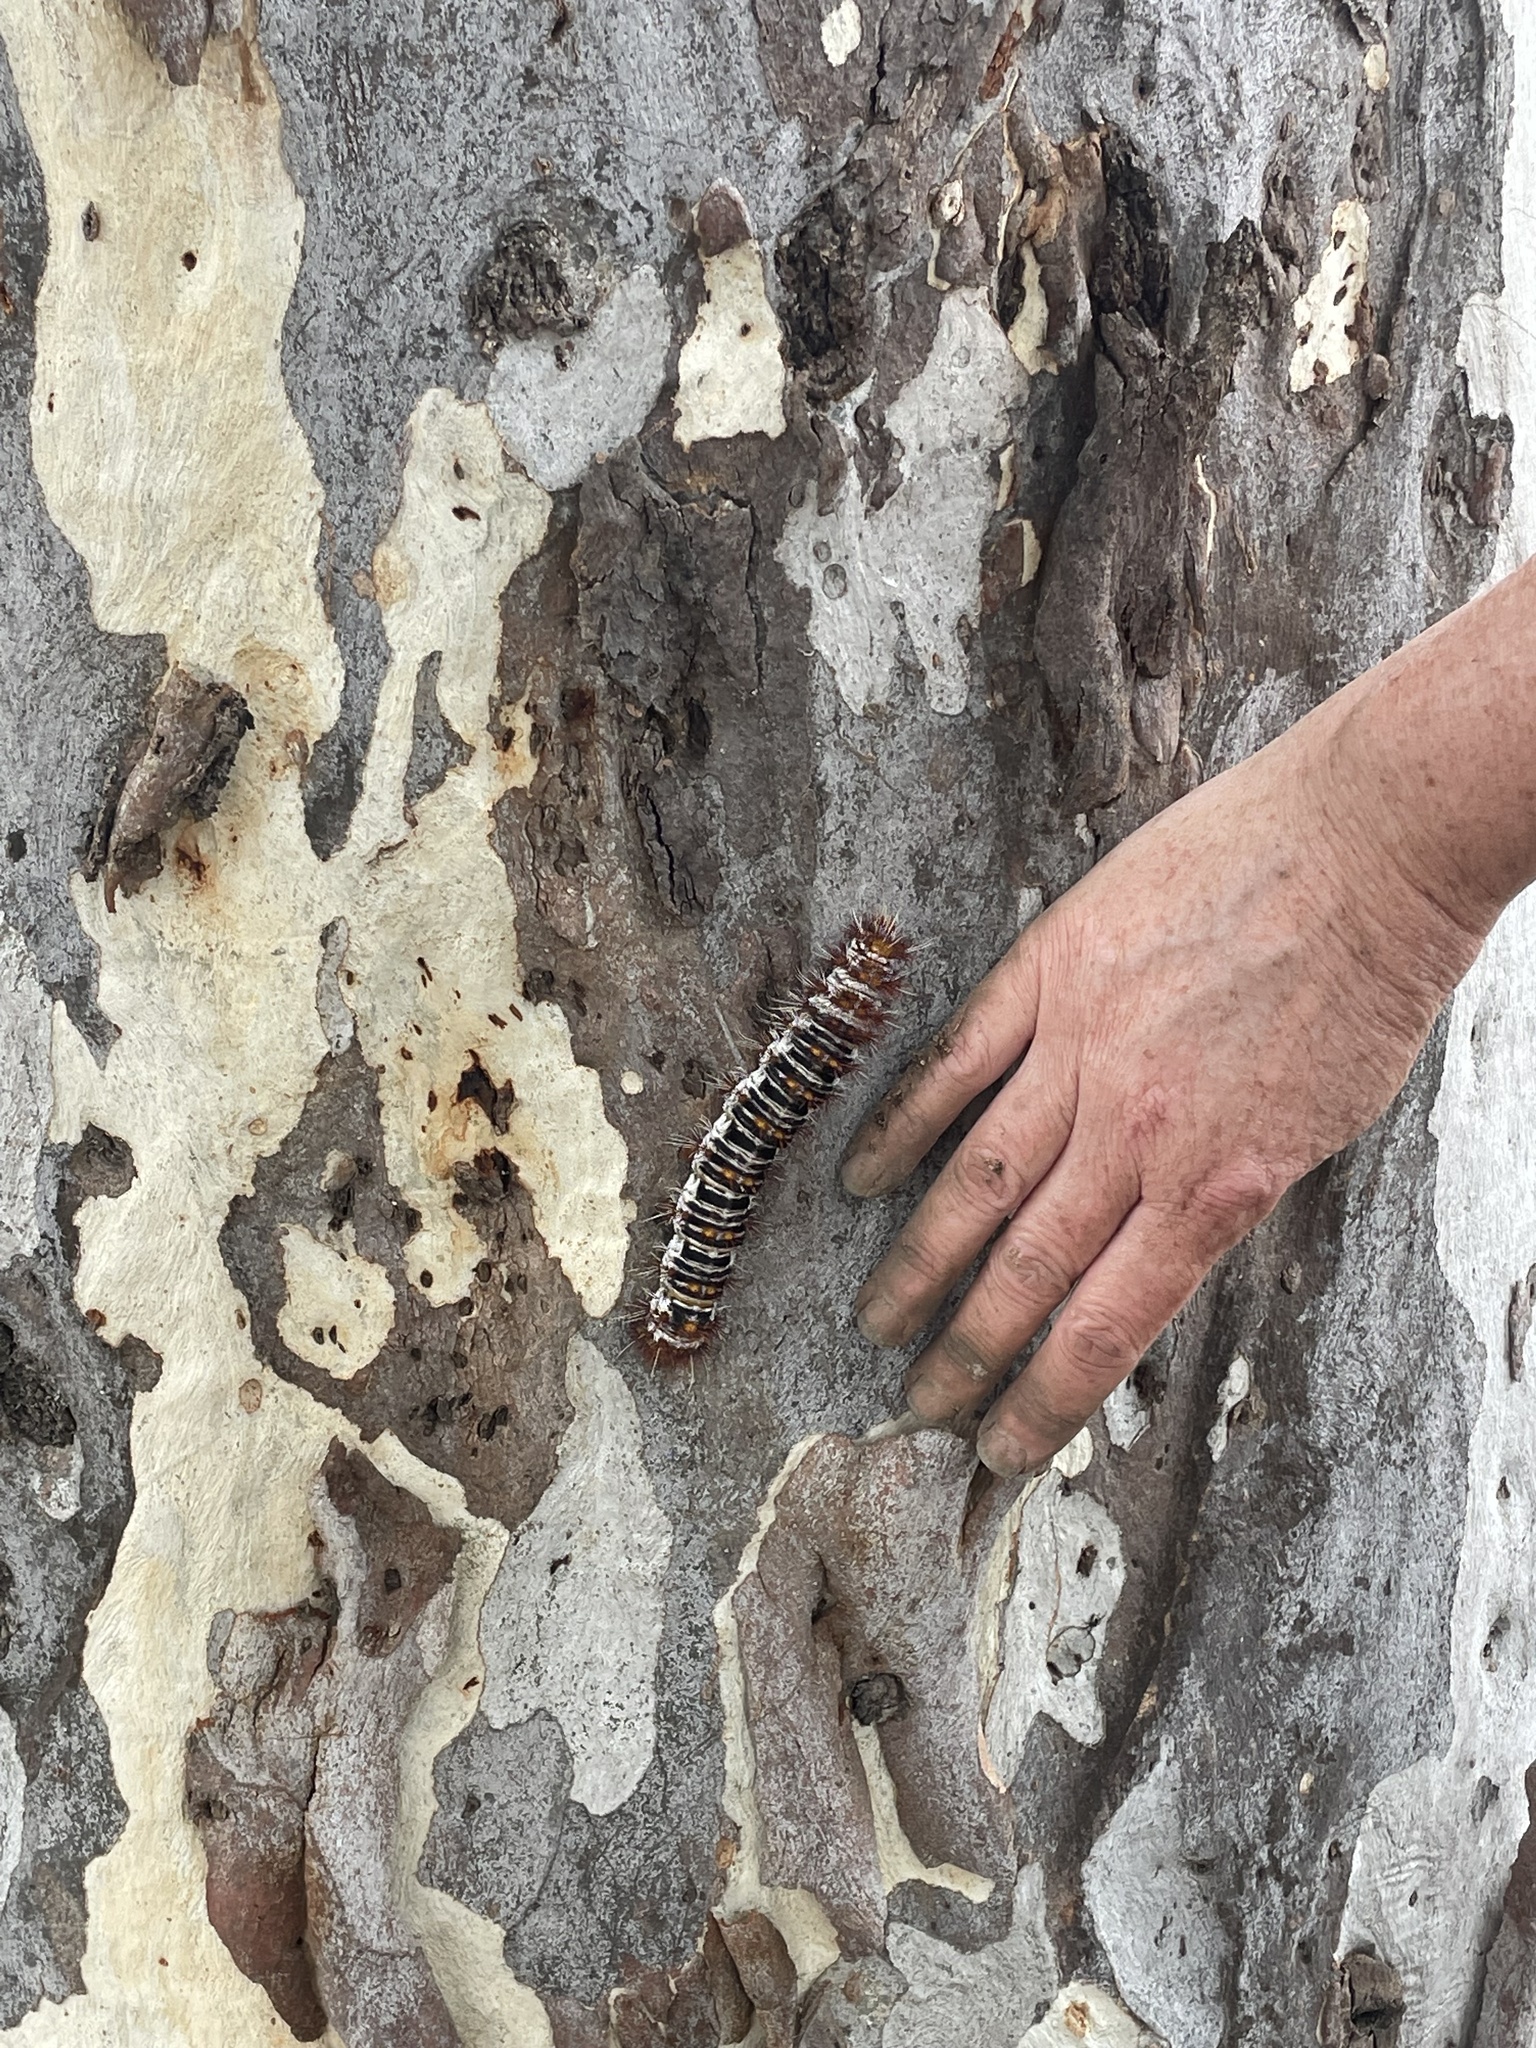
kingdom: Animalia
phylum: Arthropoda
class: Insecta
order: Lepidoptera
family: Anthelidae
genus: Chelepteryx
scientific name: Chelepteryx collesi
